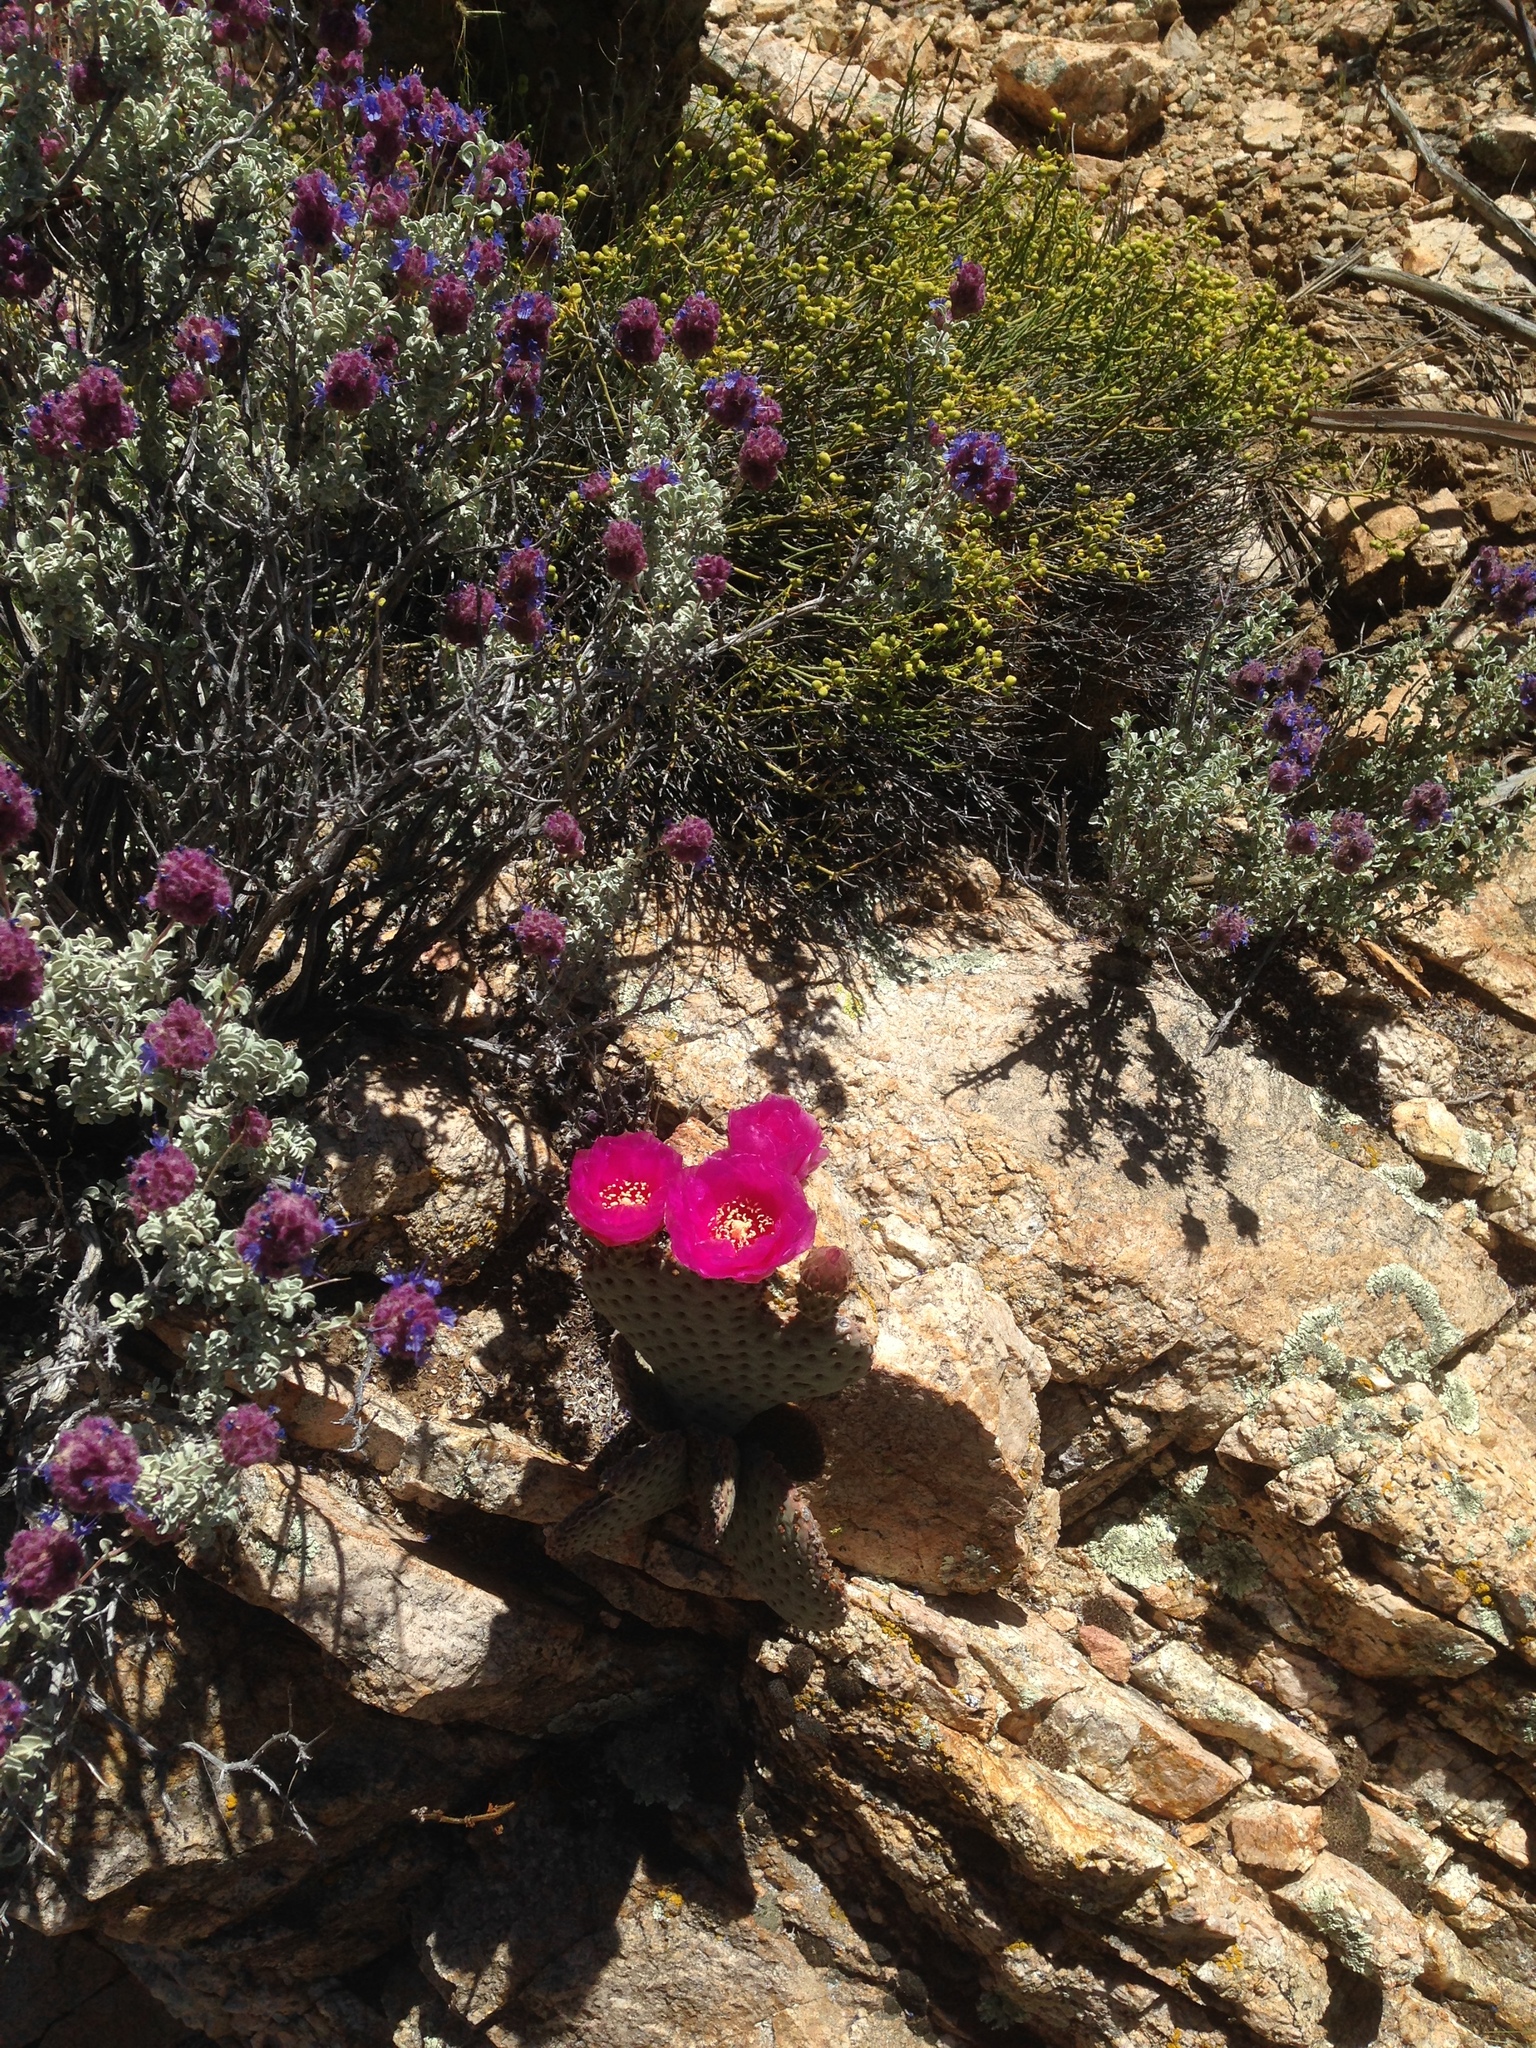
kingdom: Plantae
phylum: Tracheophyta
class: Magnoliopsida
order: Caryophyllales
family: Cactaceae
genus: Opuntia
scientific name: Opuntia basilaris
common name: Beavertail prickly-pear
